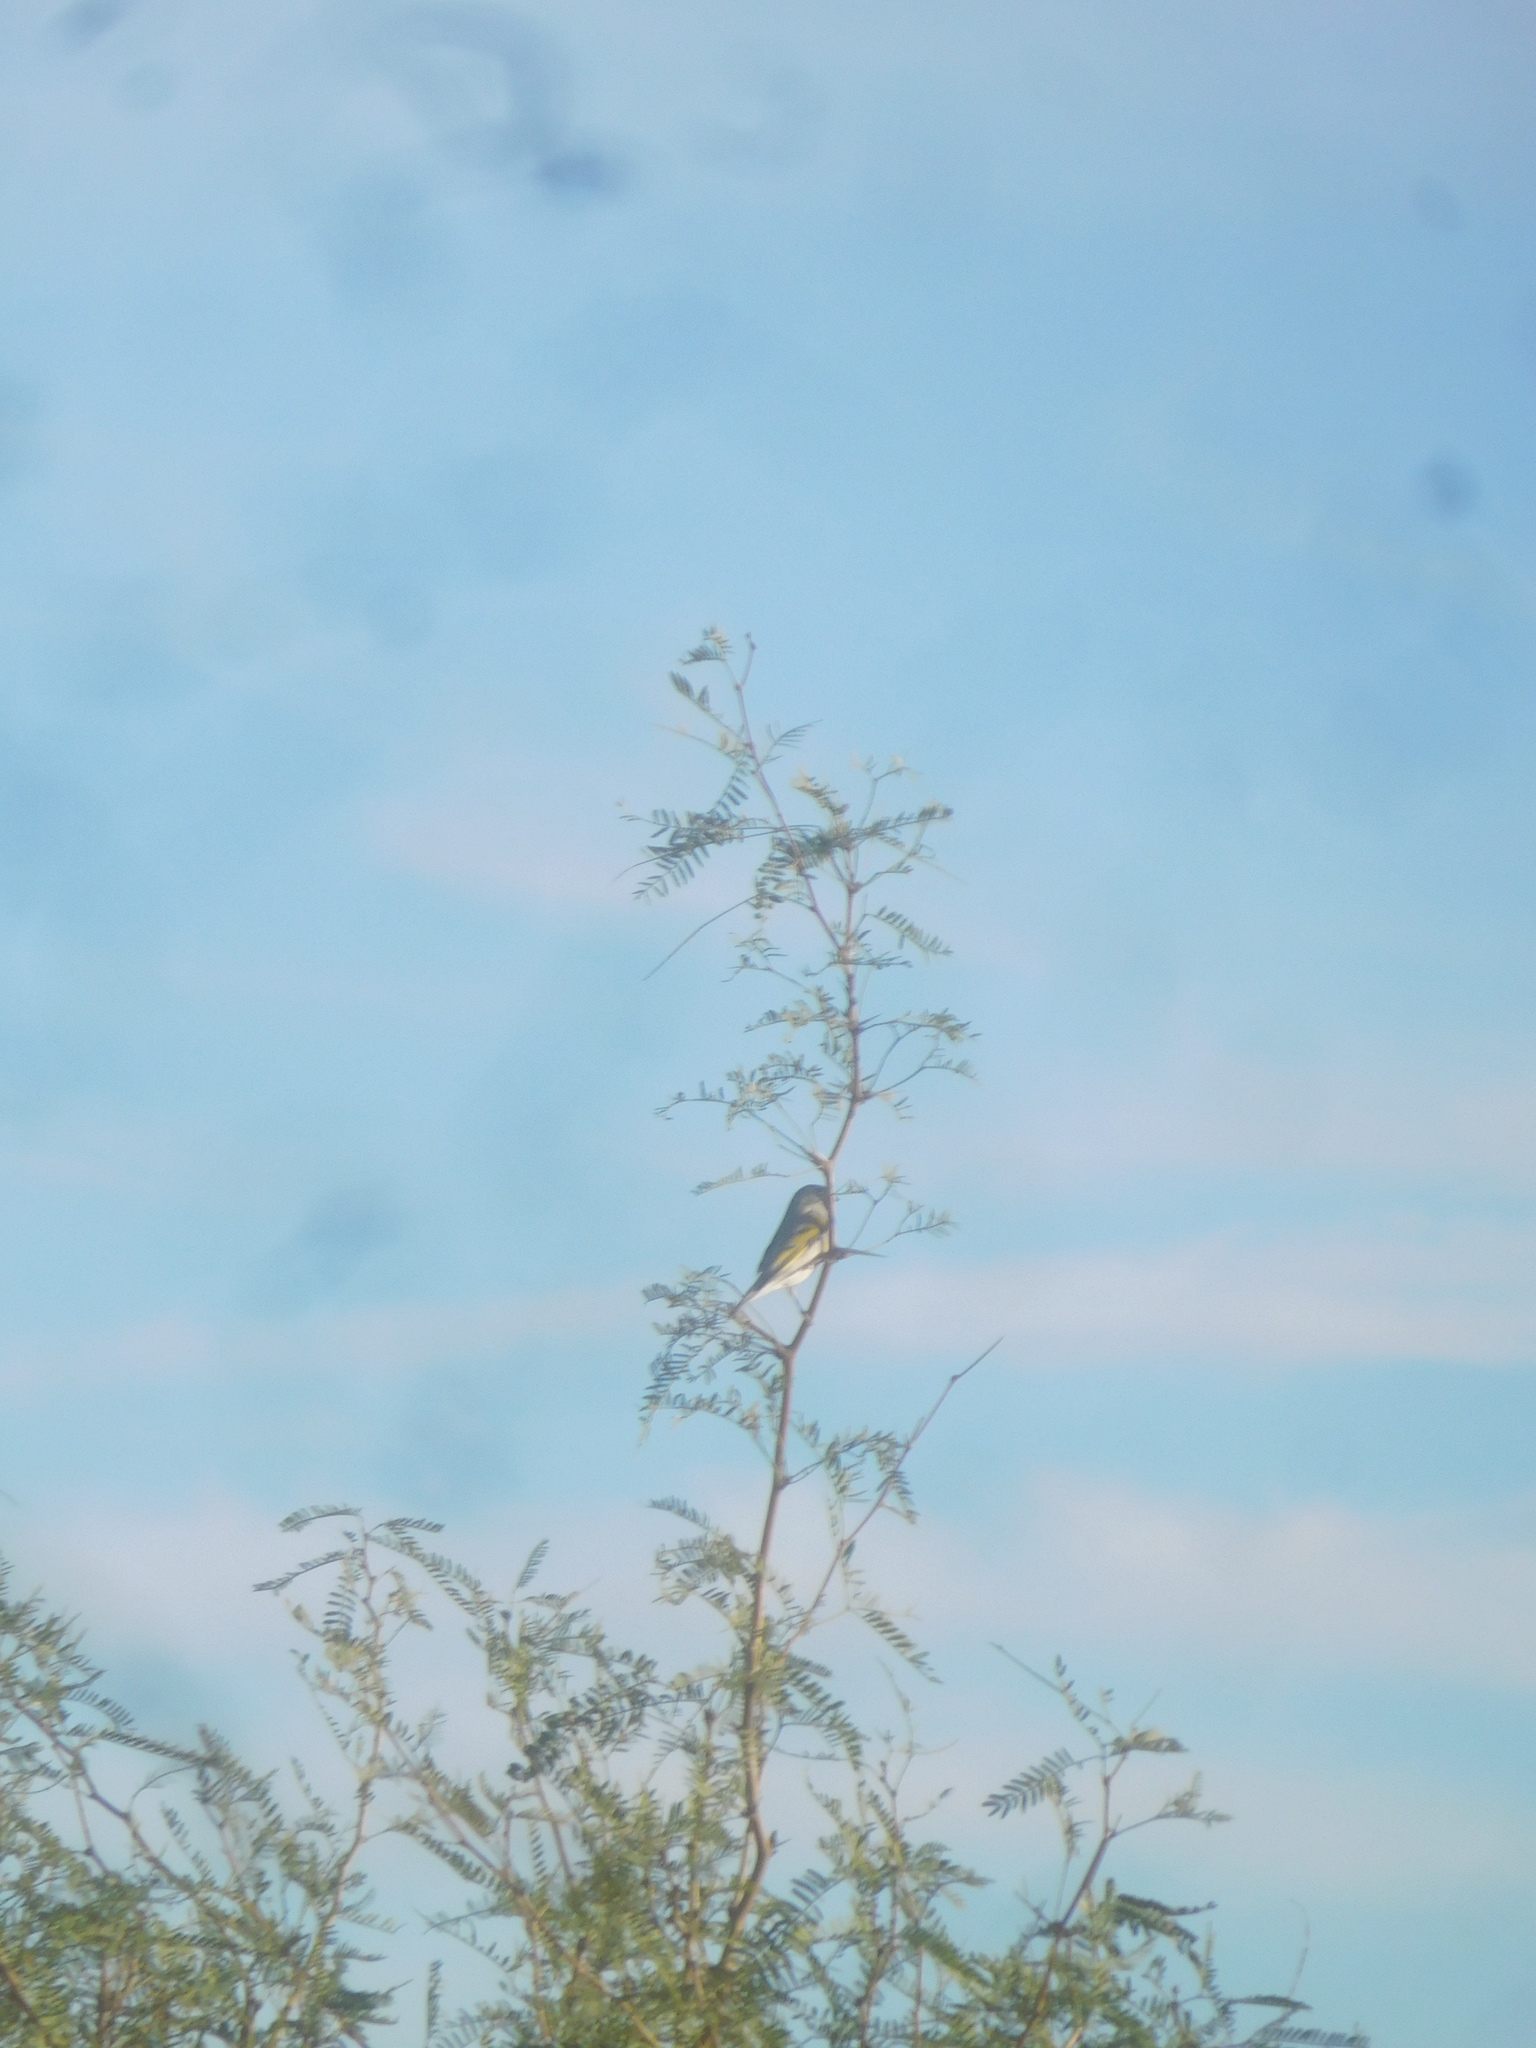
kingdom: Animalia
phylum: Chordata
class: Aves
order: Passeriformes
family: Fringillidae
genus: Spinus
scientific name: Spinus lawrencei
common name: Lawrence's goldfinch
